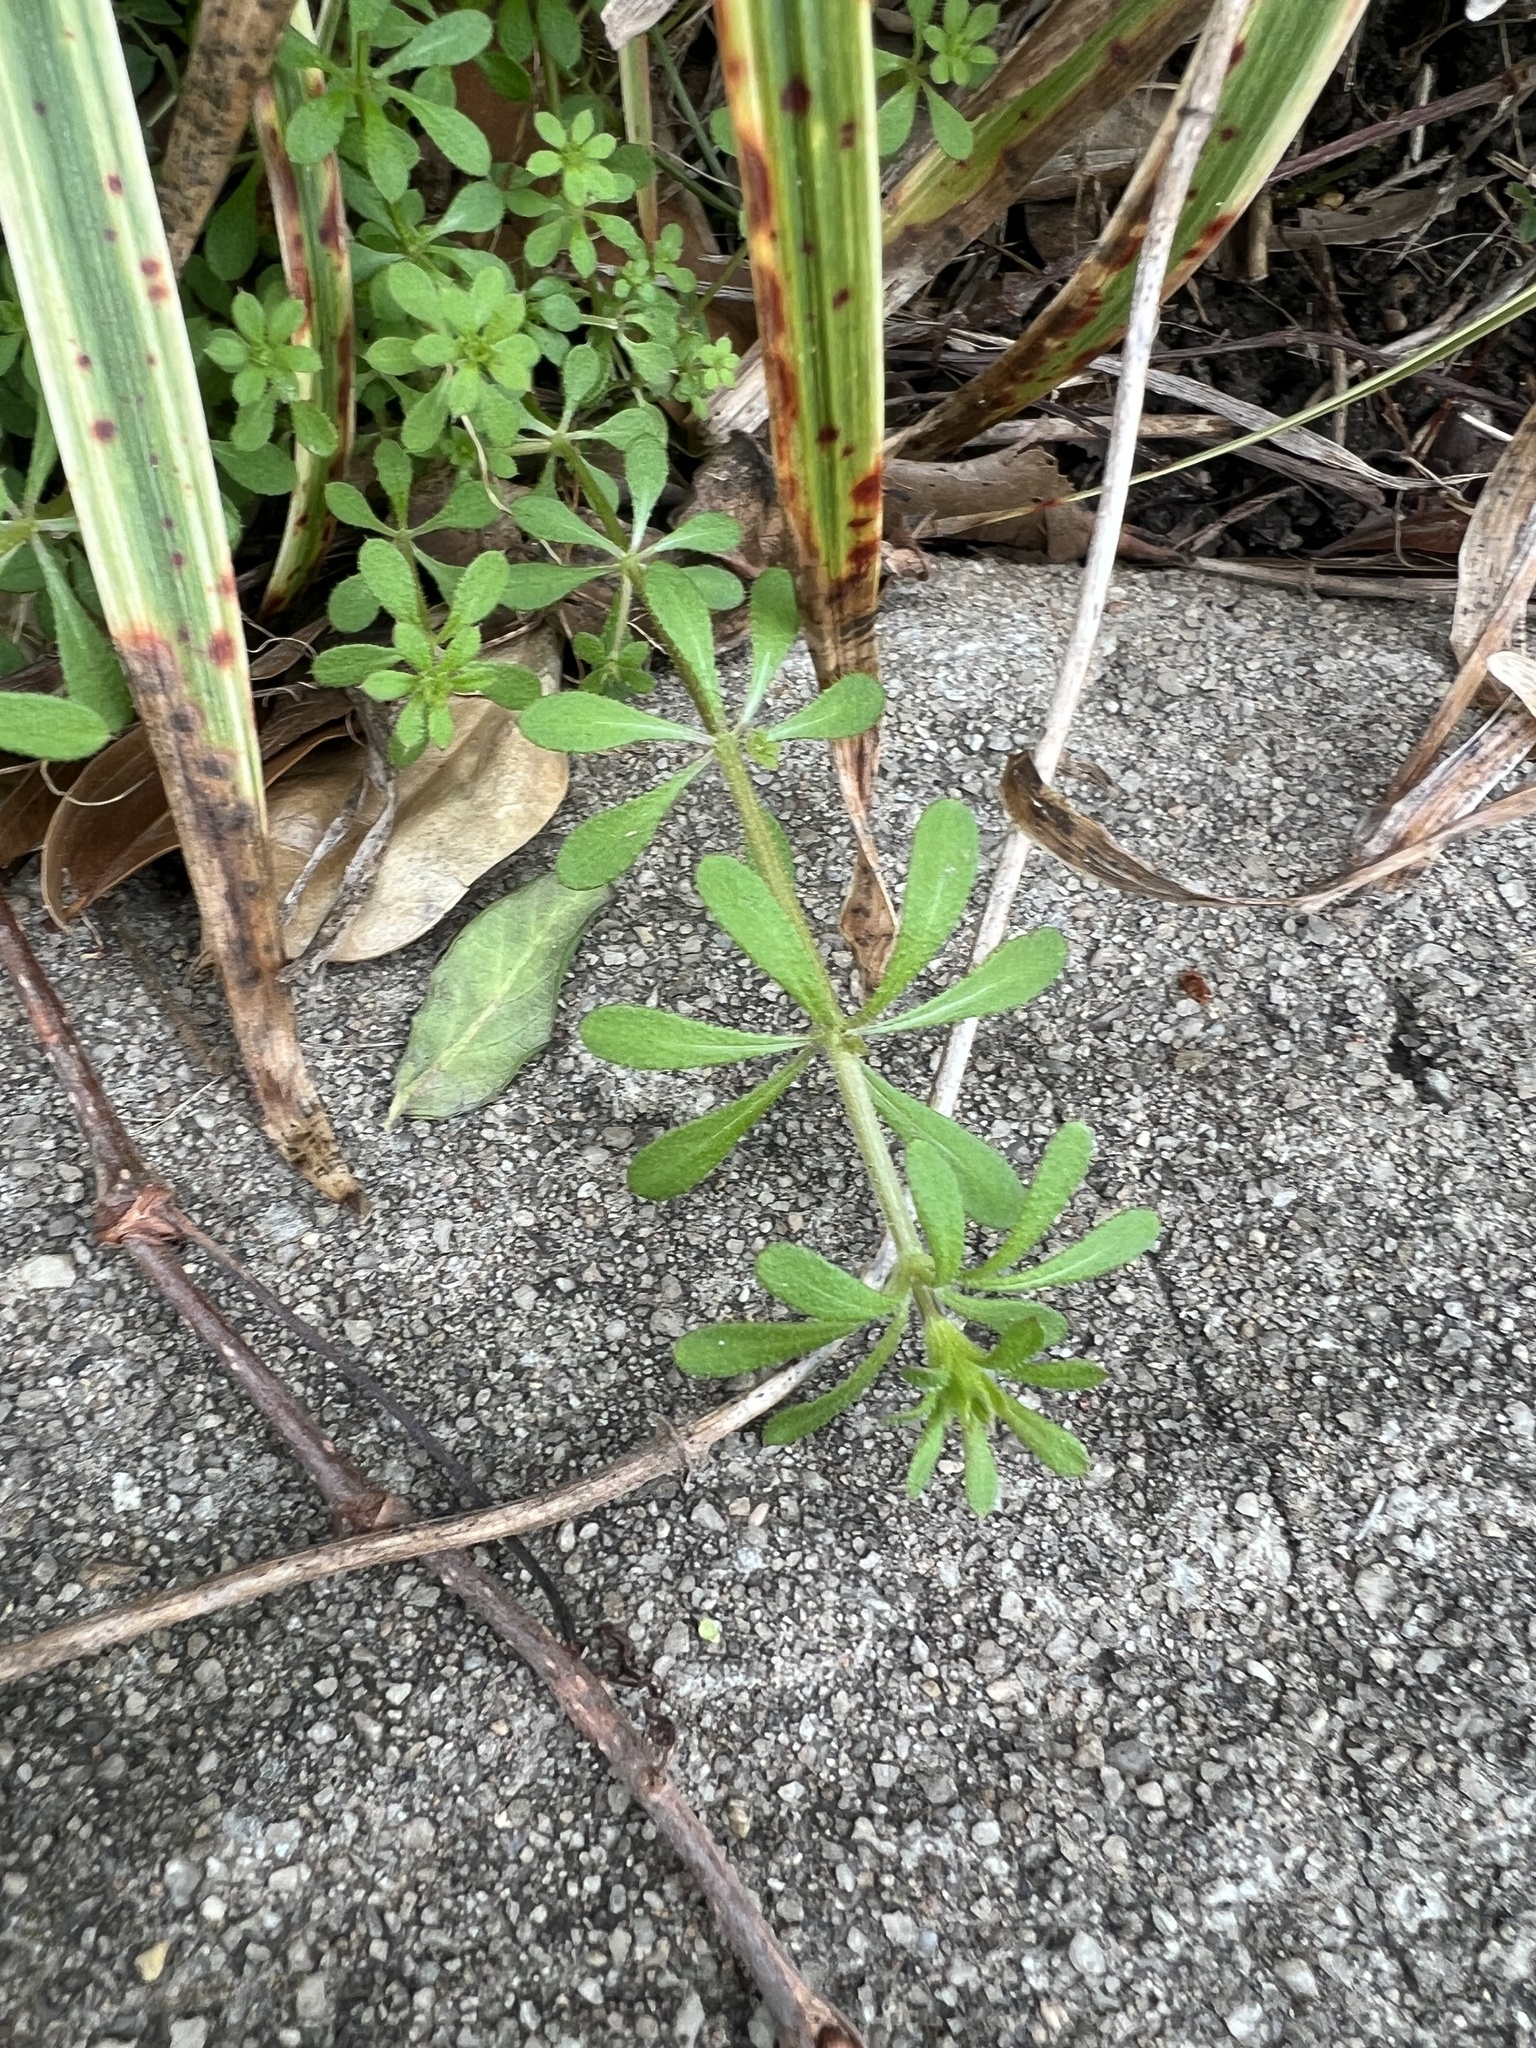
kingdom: Plantae
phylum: Tracheophyta
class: Magnoliopsida
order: Gentianales
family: Rubiaceae
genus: Galium
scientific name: Galium aparine
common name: Cleavers
